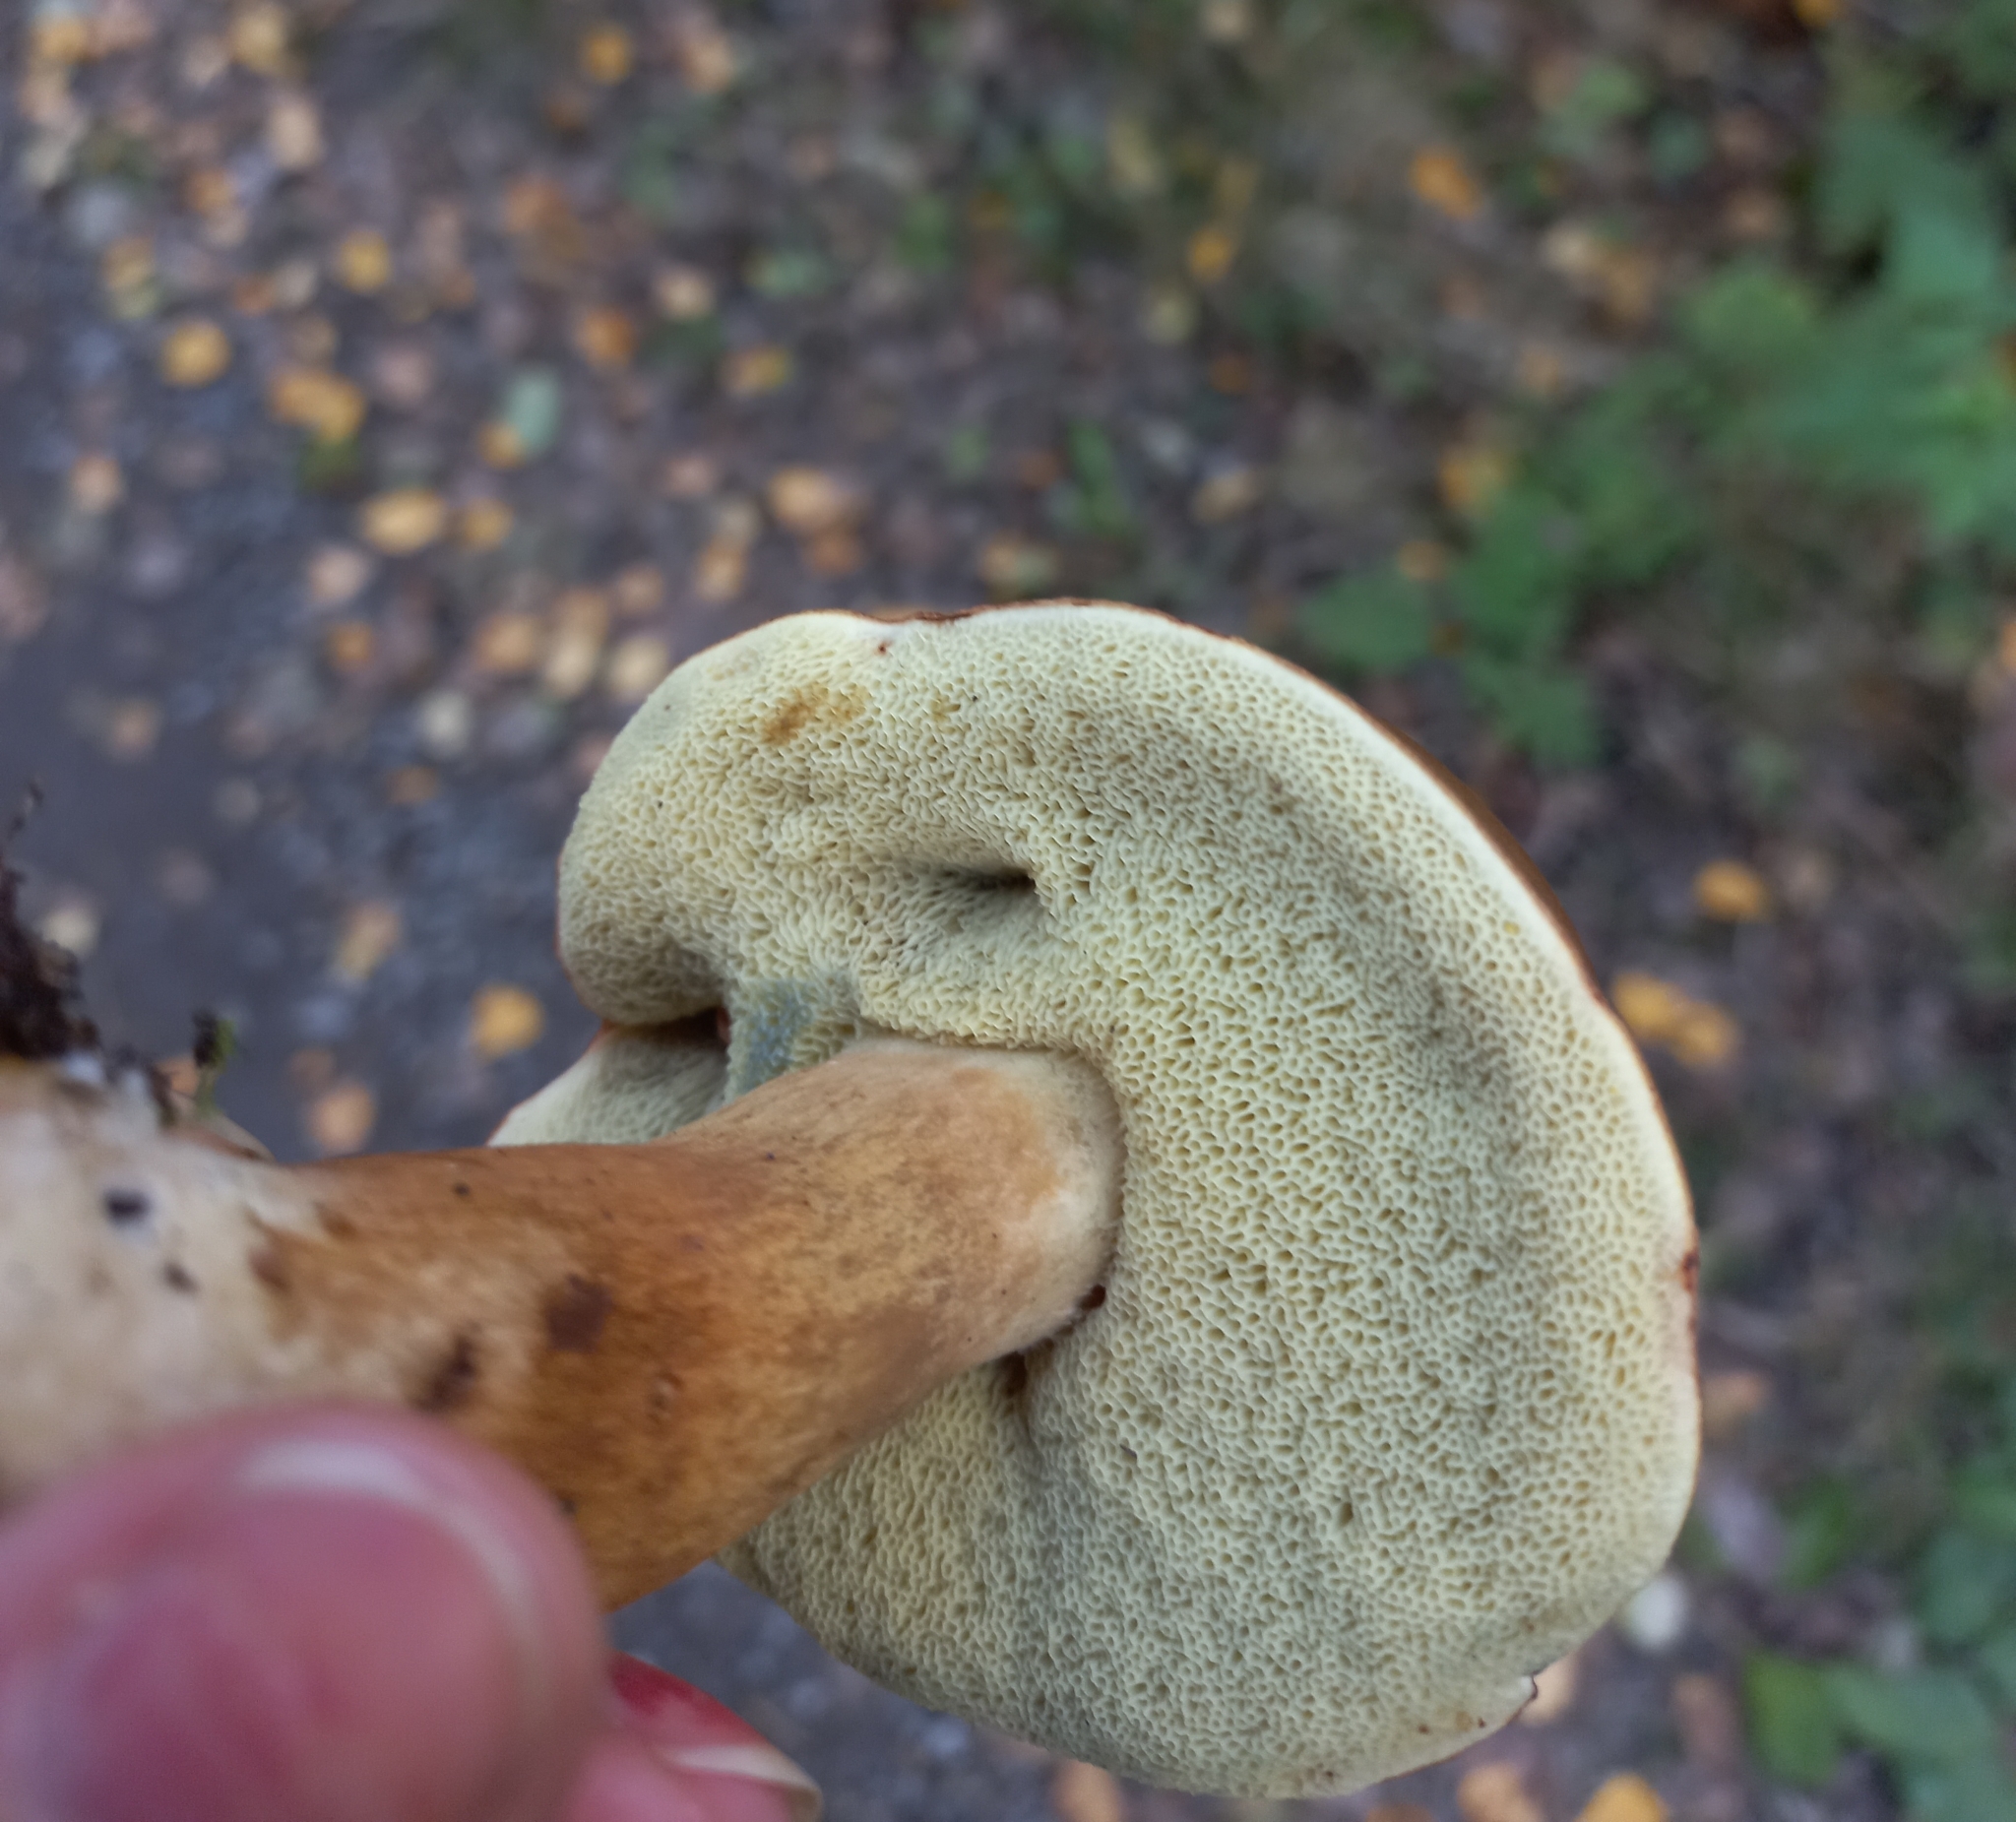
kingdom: Fungi
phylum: Basidiomycota
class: Agaricomycetes
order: Boletales
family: Boletaceae
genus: Imleria
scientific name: Imleria badia
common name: Bay bolete
